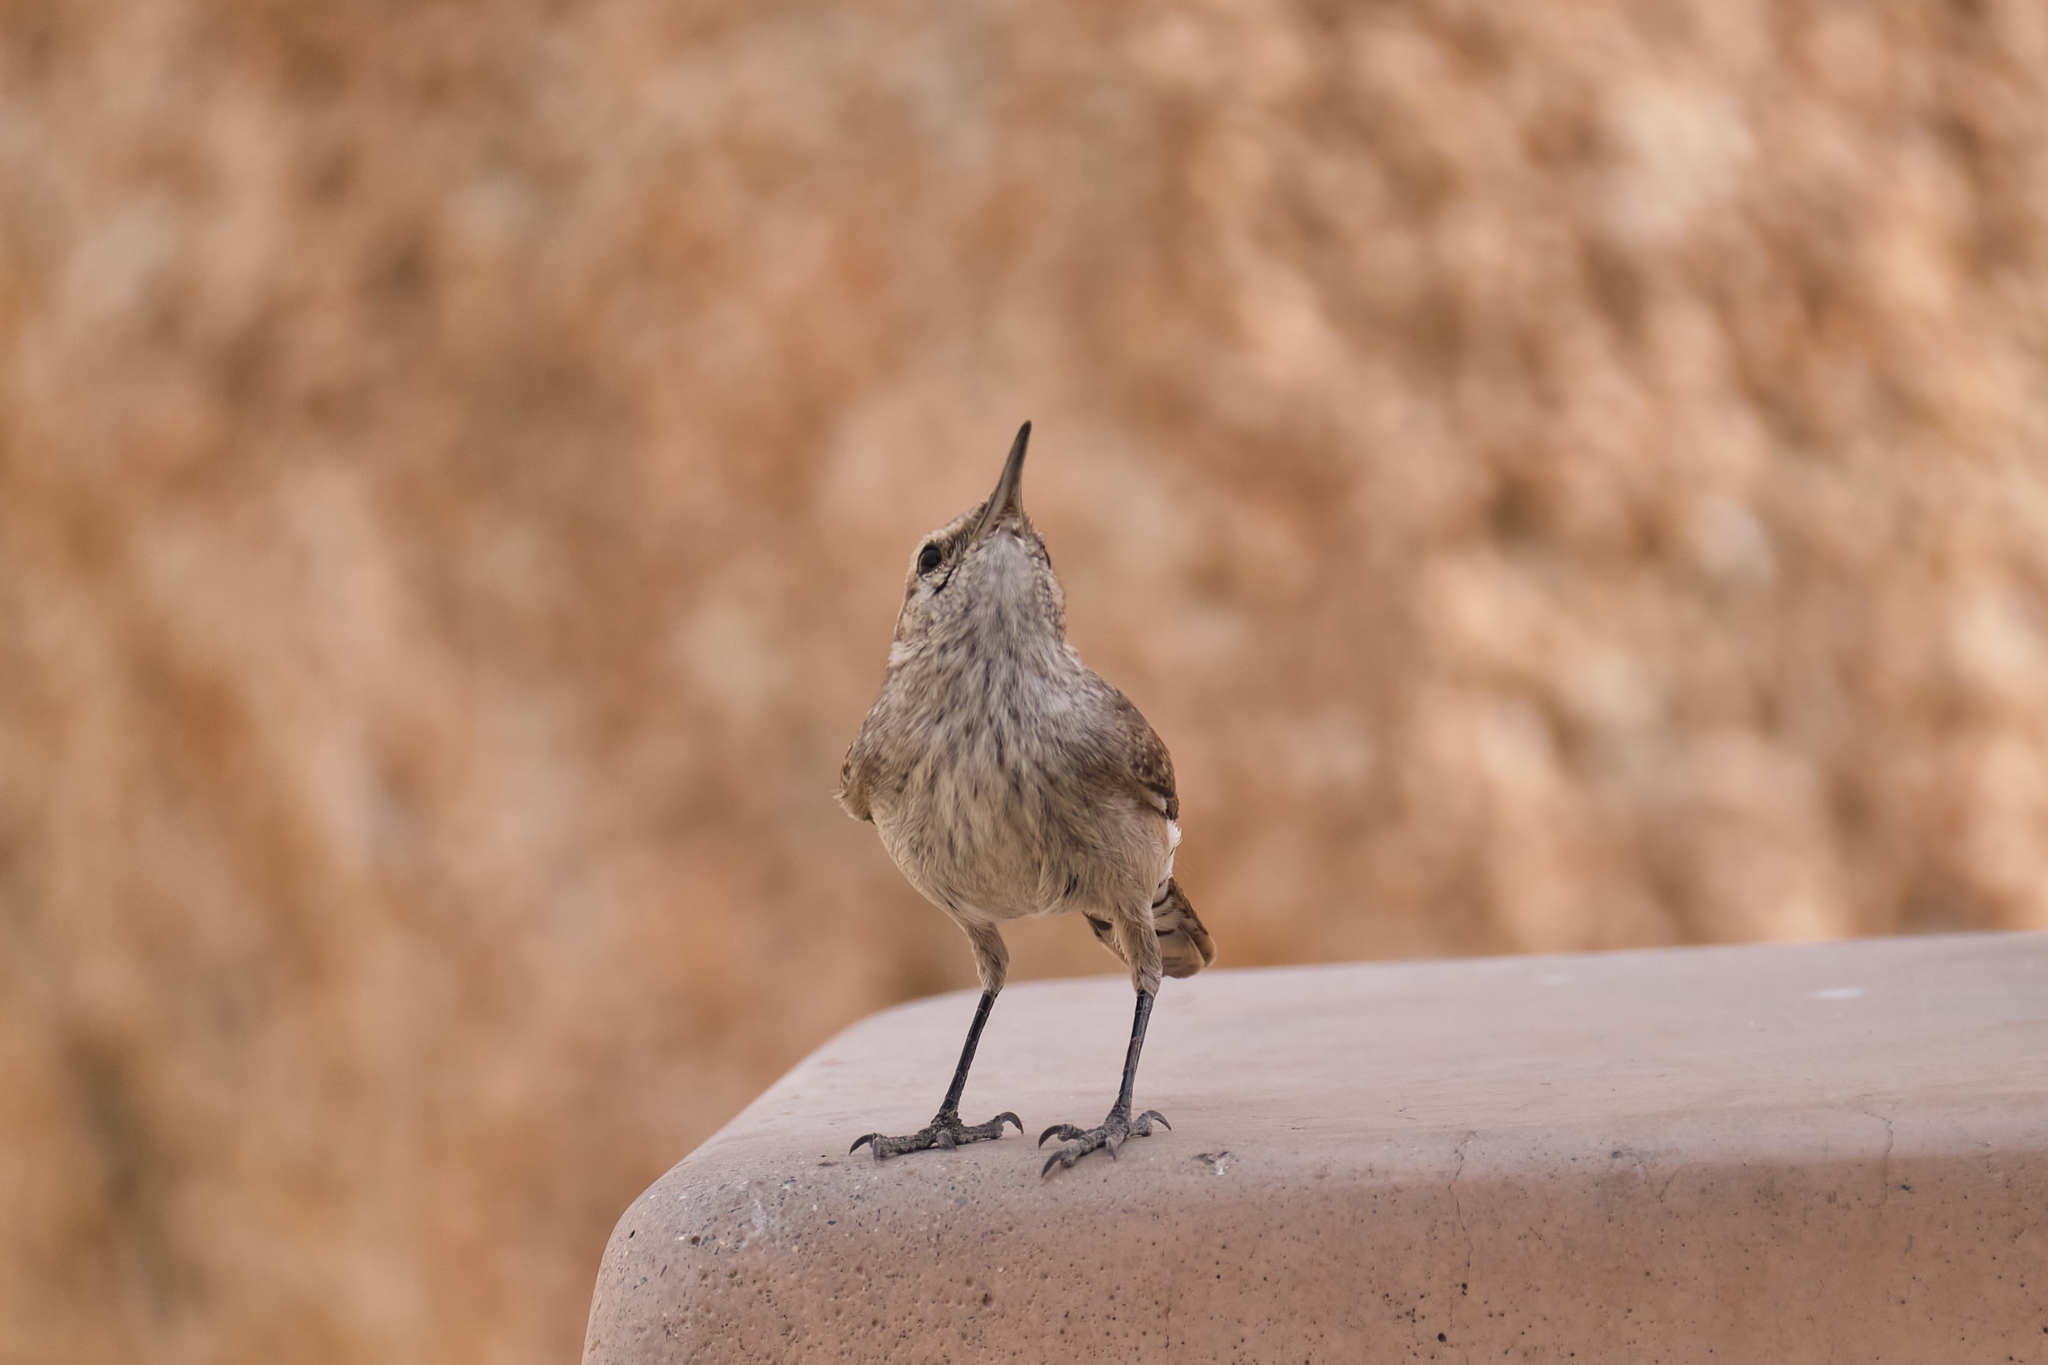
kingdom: Animalia
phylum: Chordata
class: Aves
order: Passeriformes
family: Troglodytidae
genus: Salpinctes
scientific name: Salpinctes obsoletus
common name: Rock wren
